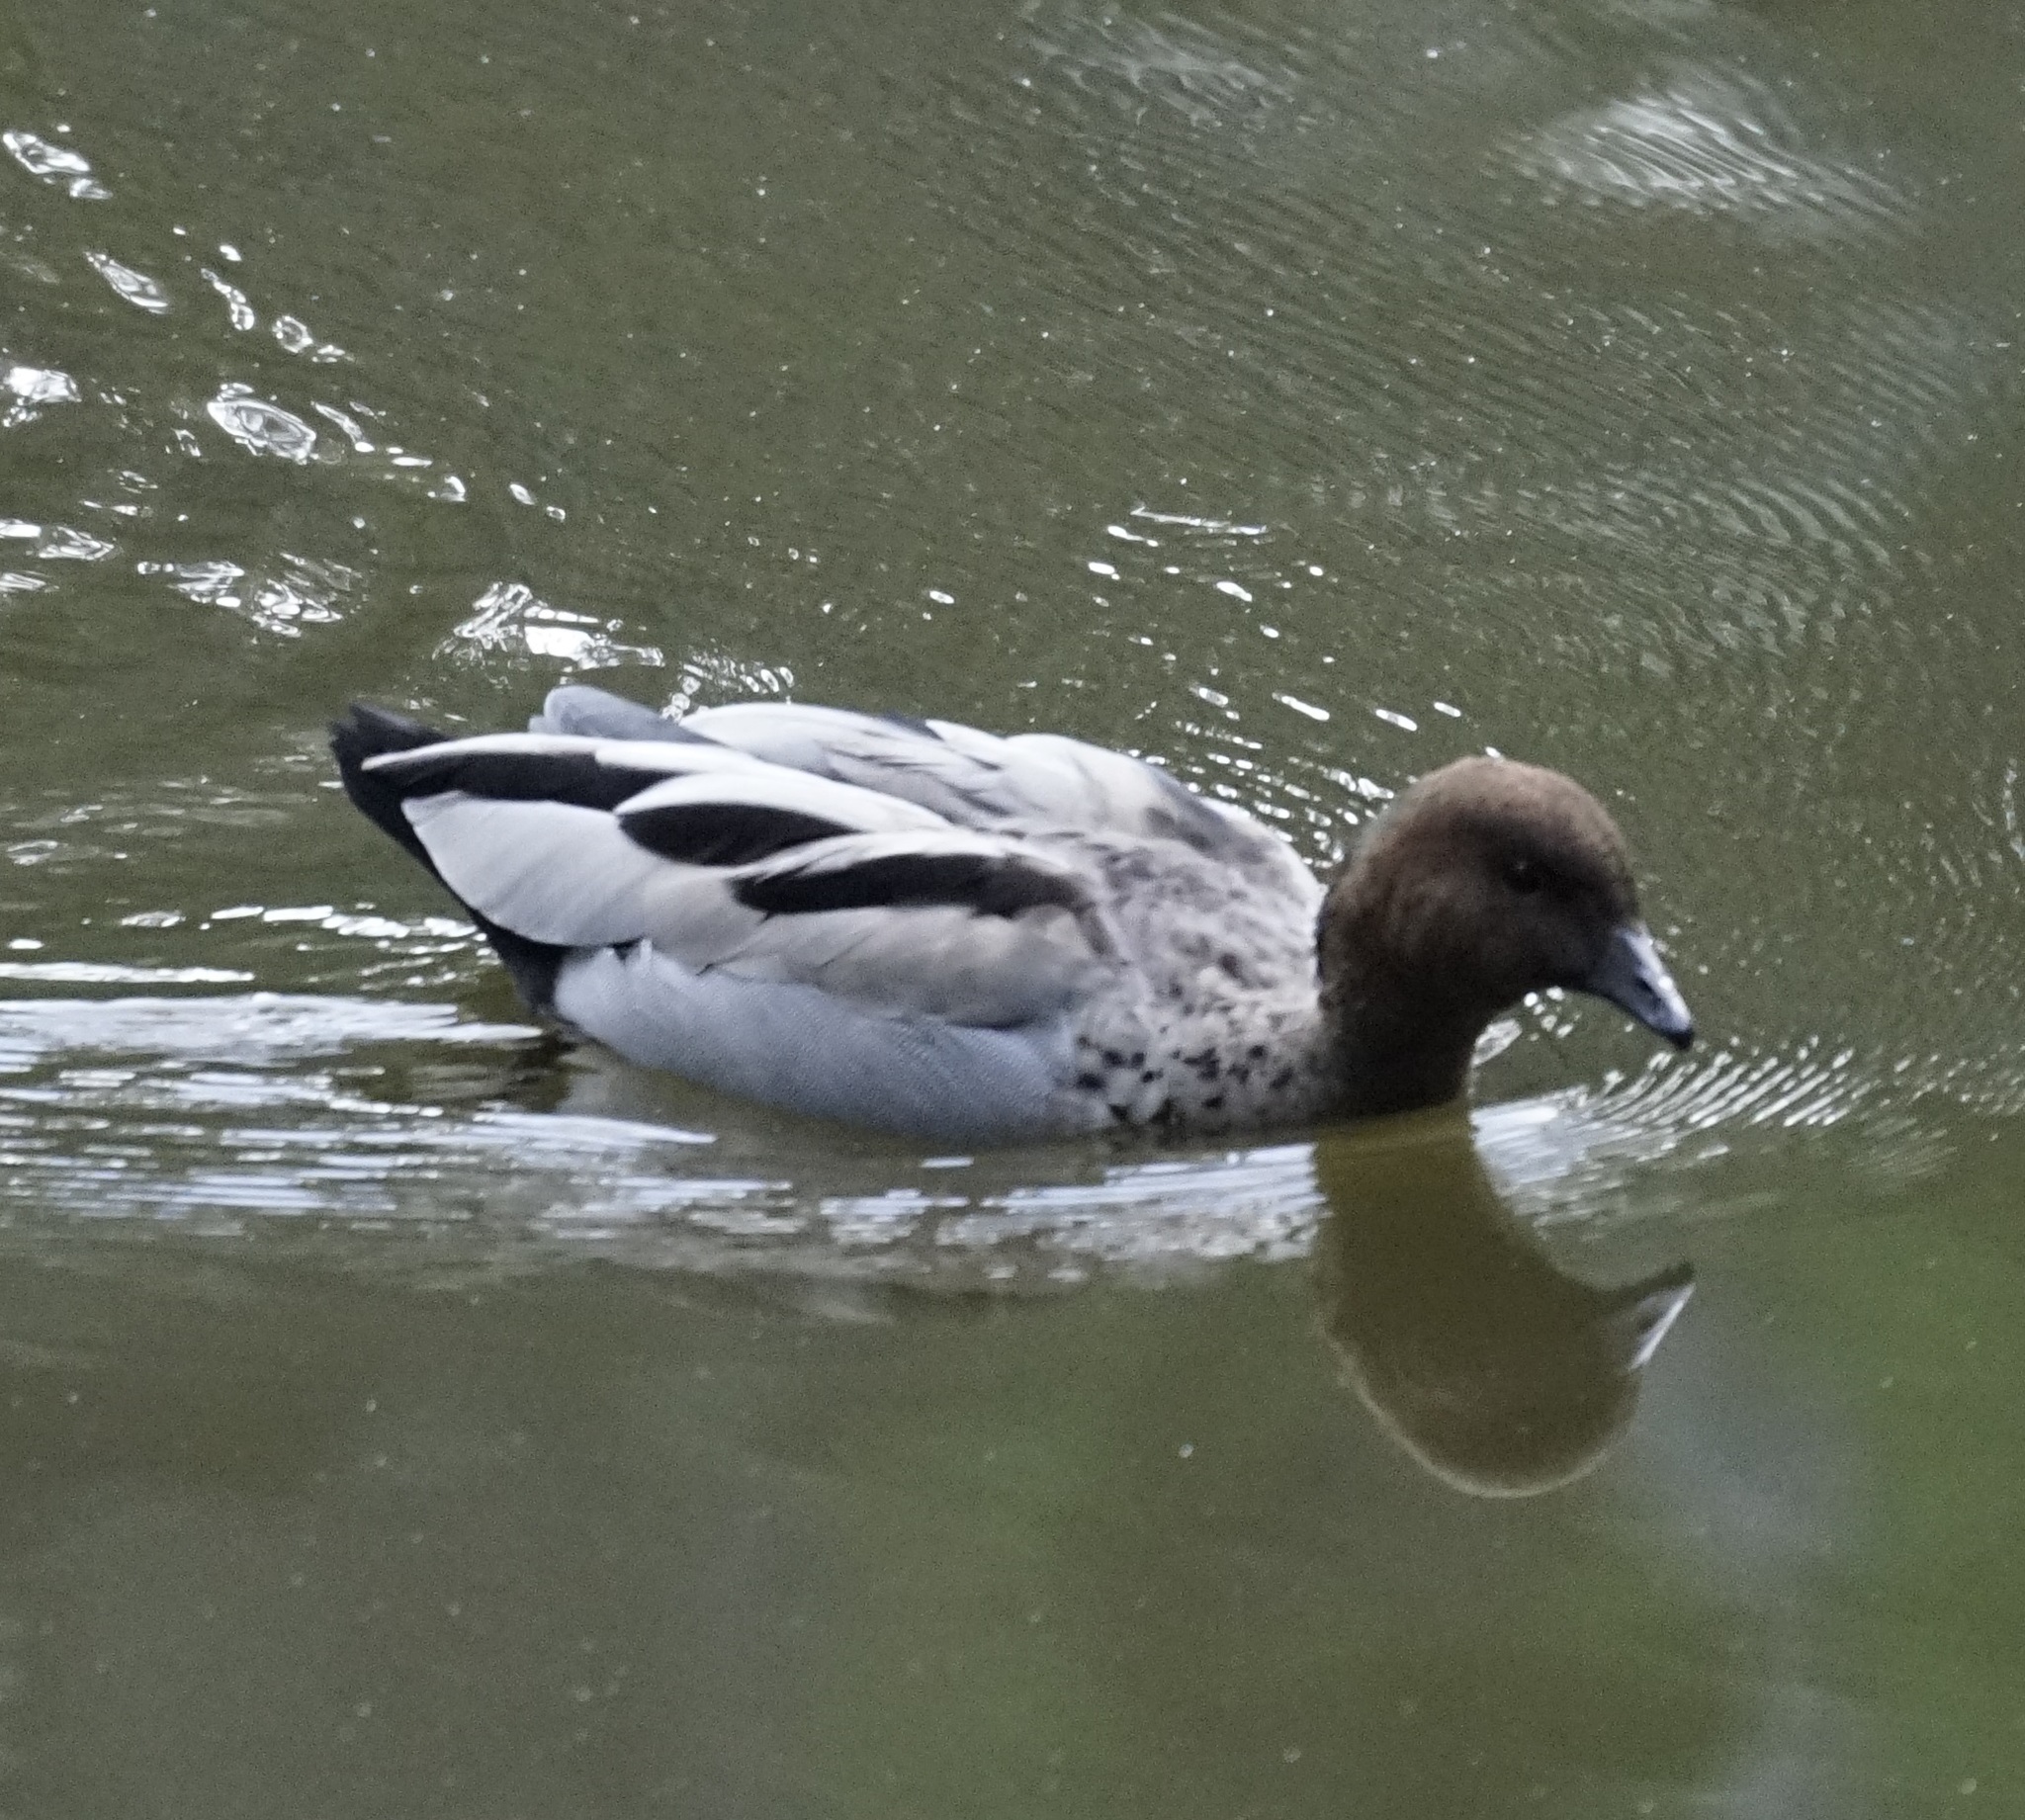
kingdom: Animalia
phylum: Chordata
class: Aves
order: Anseriformes
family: Anatidae
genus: Chenonetta
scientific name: Chenonetta jubata
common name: Maned duck
